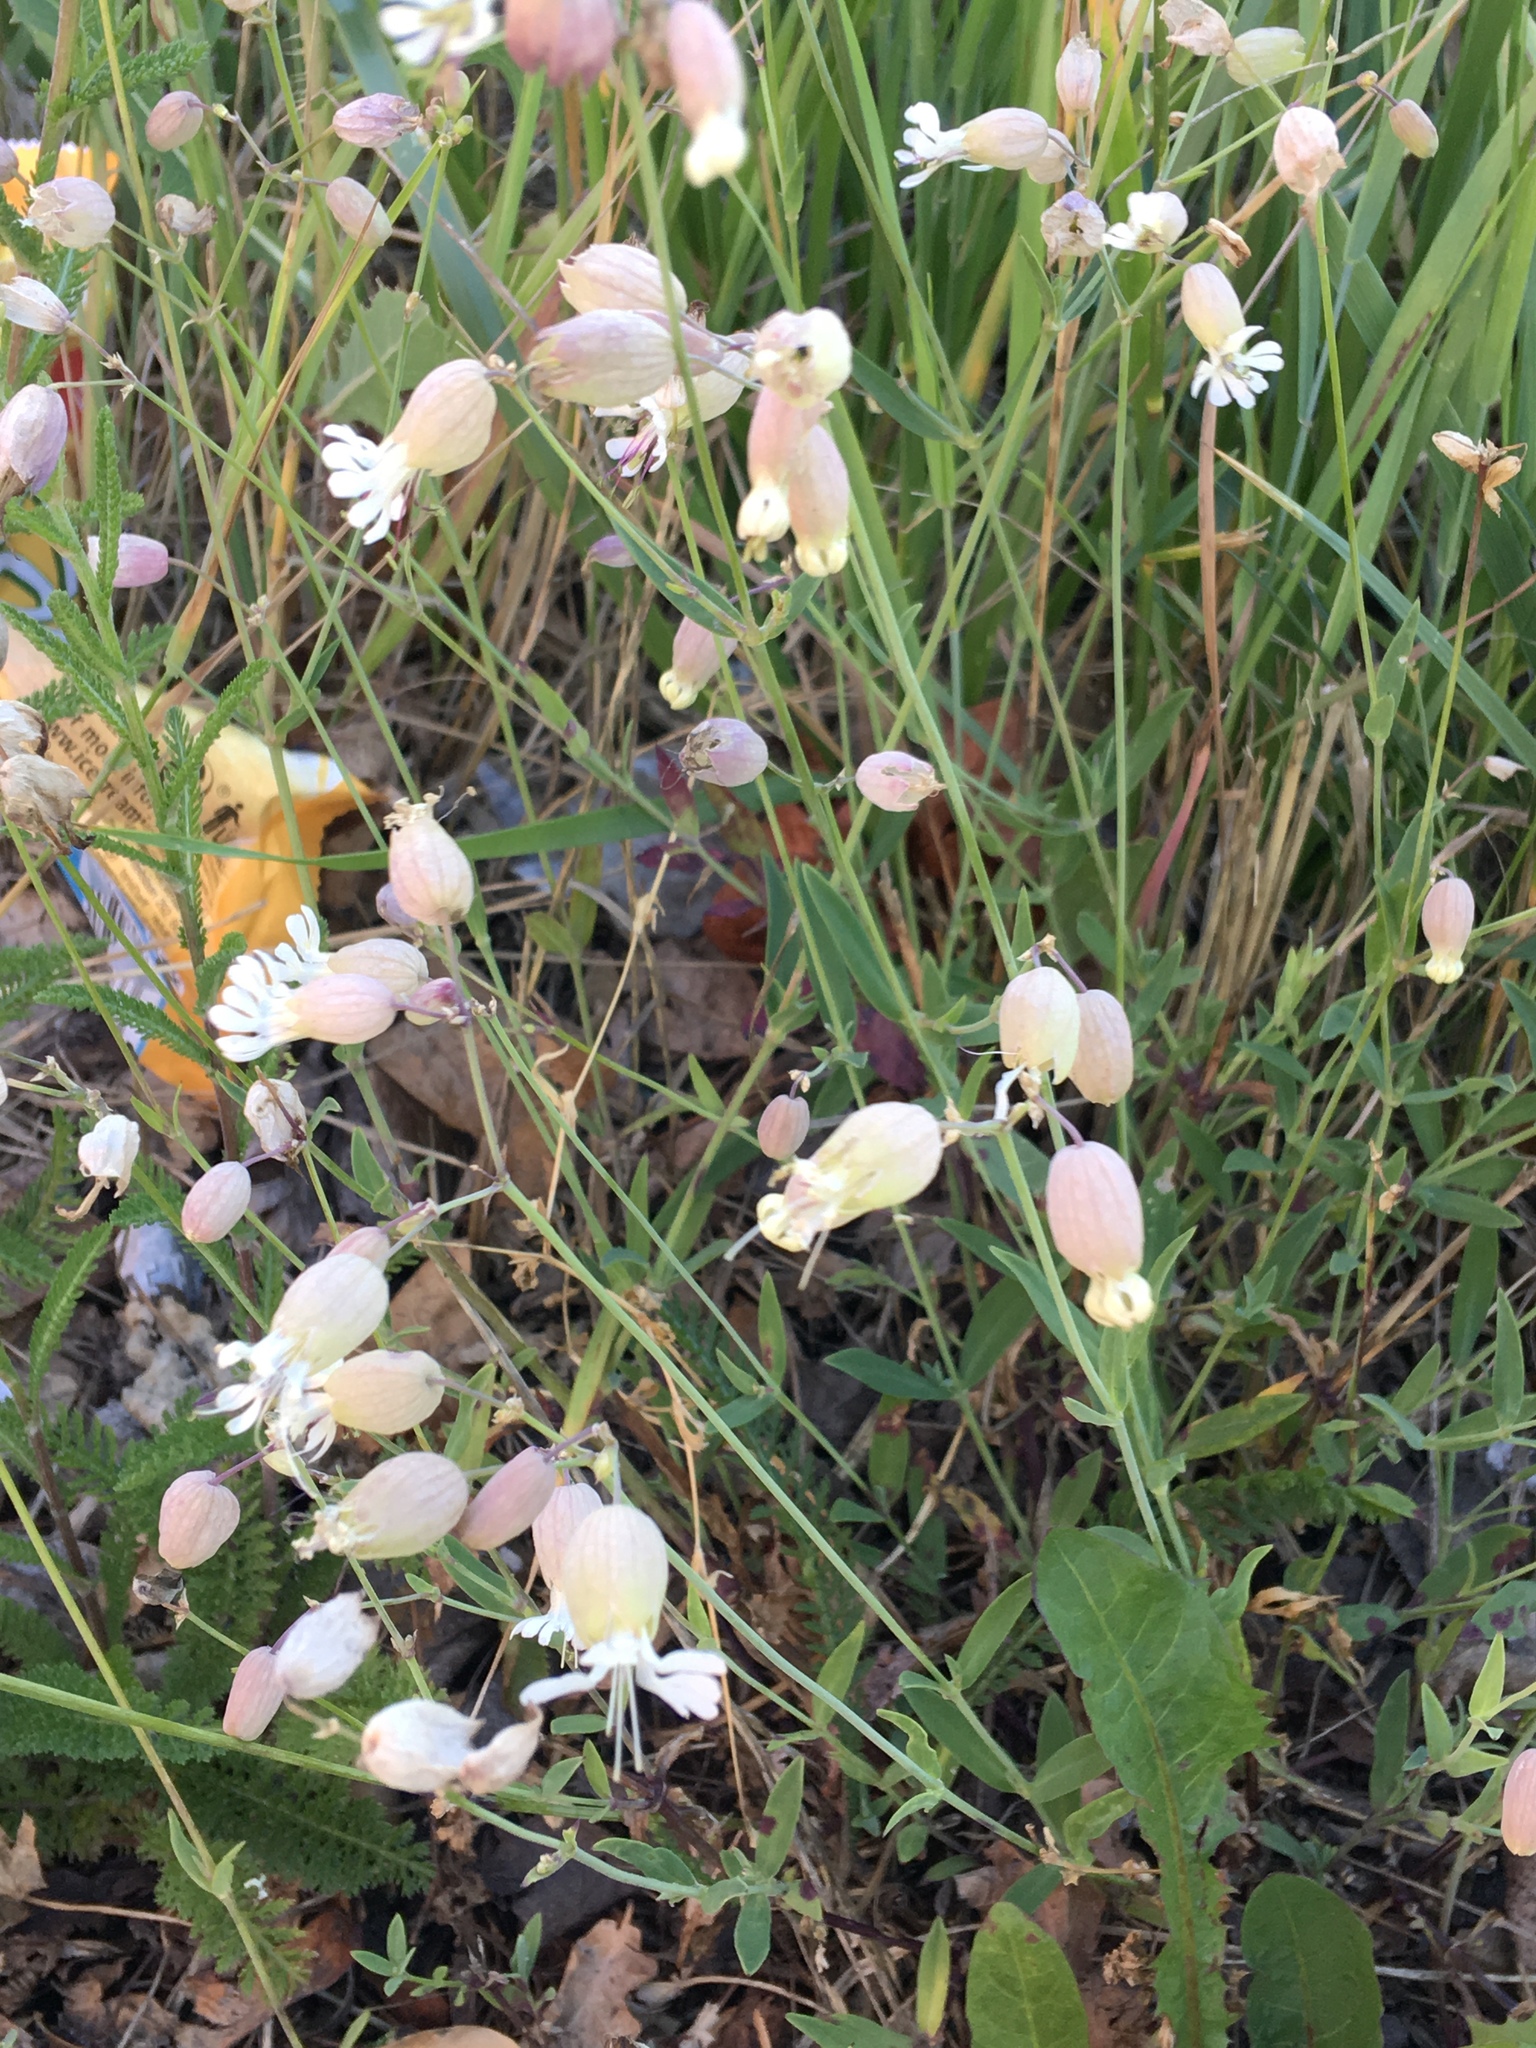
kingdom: Plantae
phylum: Tracheophyta
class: Magnoliopsida
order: Caryophyllales
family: Caryophyllaceae
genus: Silene
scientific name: Silene vulgaris
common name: Bladder campion
